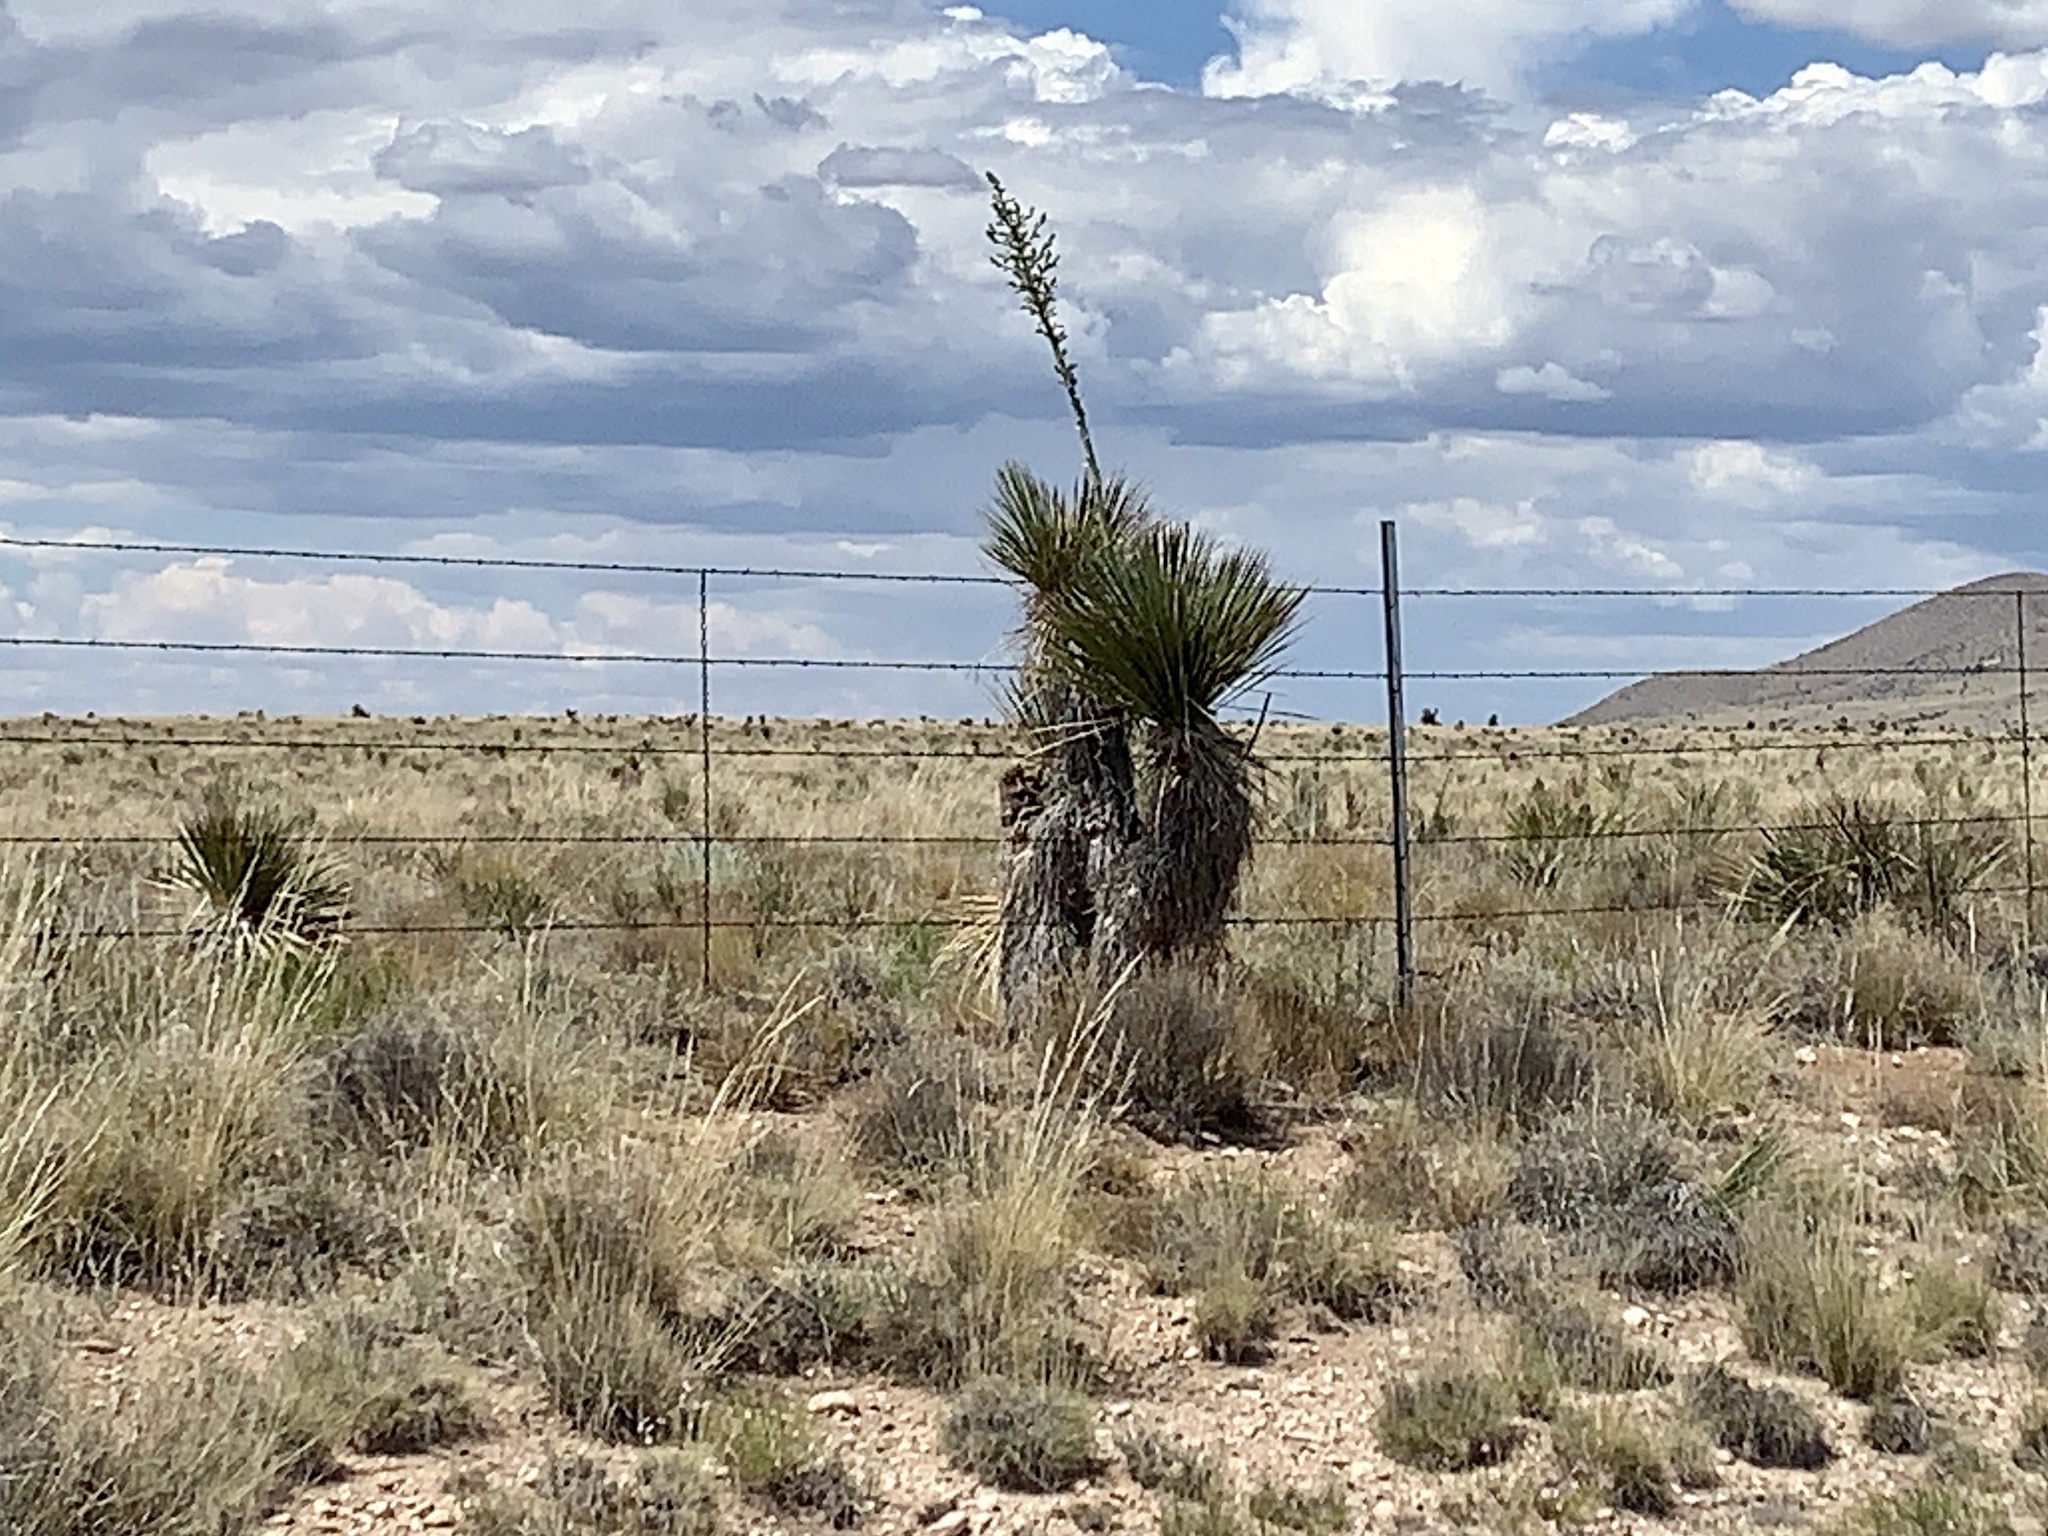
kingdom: Plantae
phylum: Tracheophyta
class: Liliopsida
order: Asparagales
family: Asparagaceae
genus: Yucca
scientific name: Yucca elata
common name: Palmella
